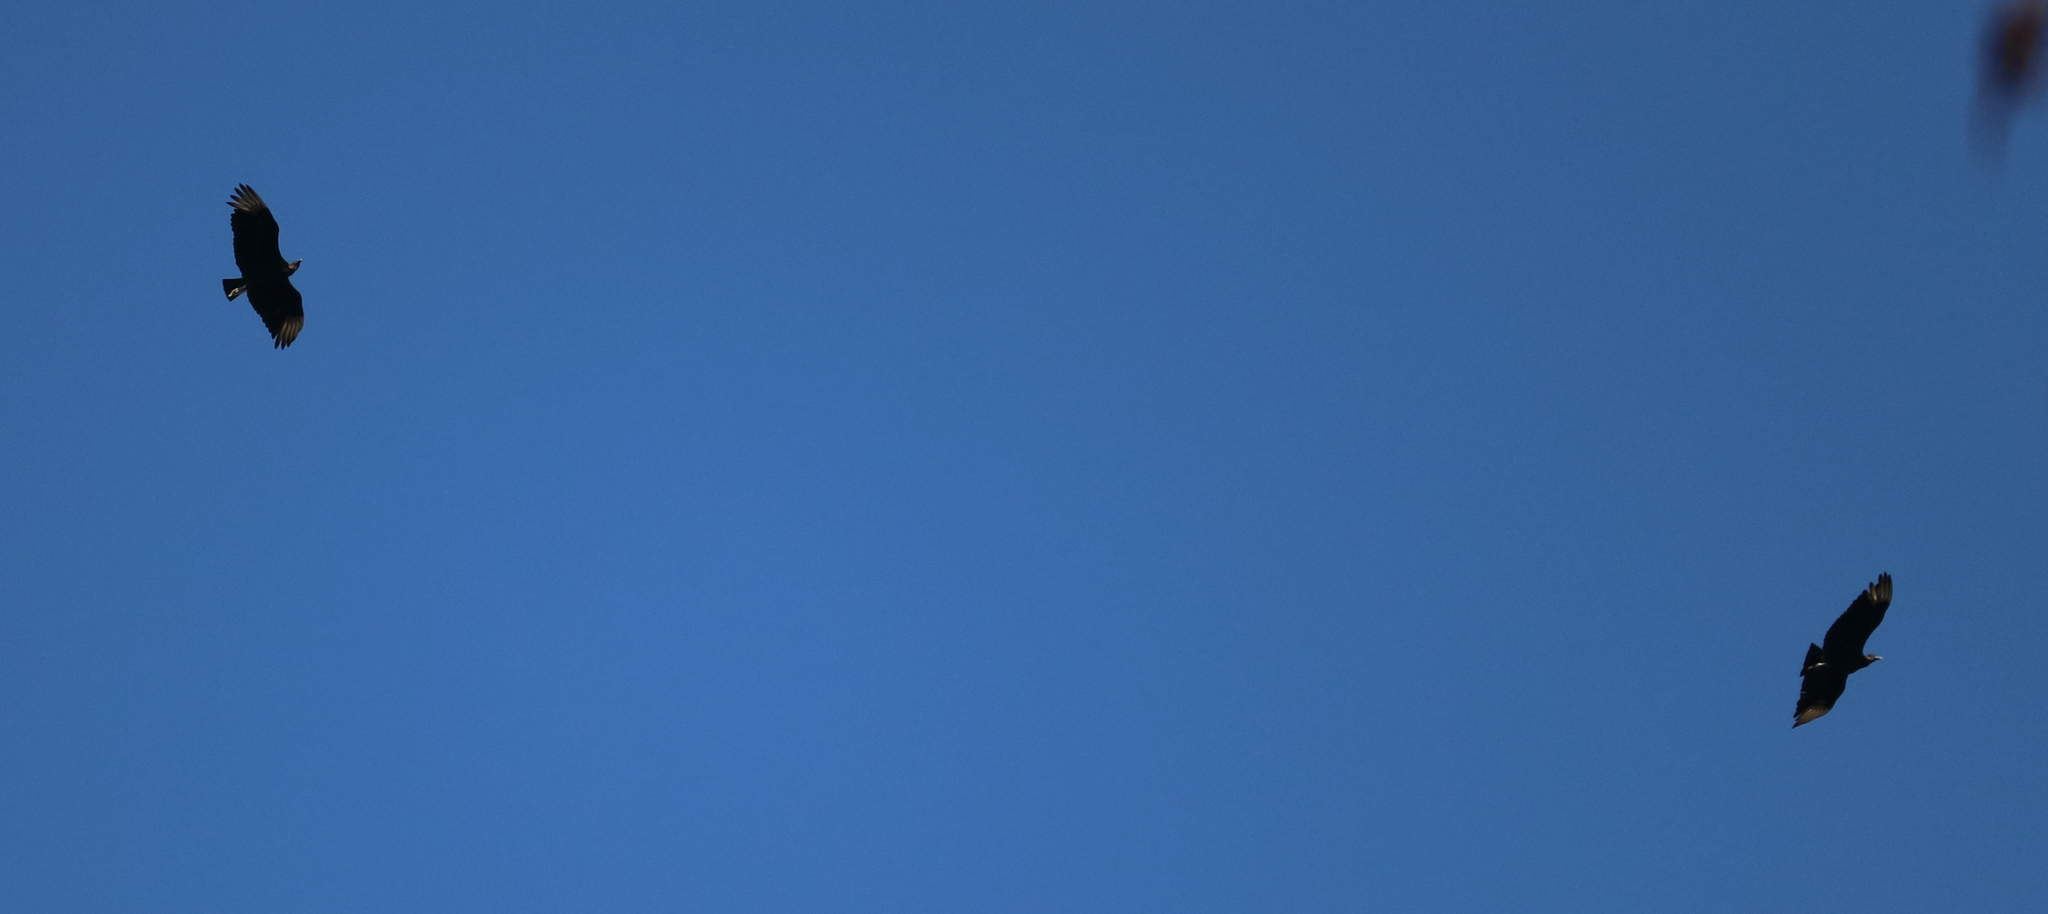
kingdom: Animalia
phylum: Chordata
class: Aves
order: Accipitriformes
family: Cathartidae
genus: Coragyps
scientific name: Coragyps atratus
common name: Black vulture
